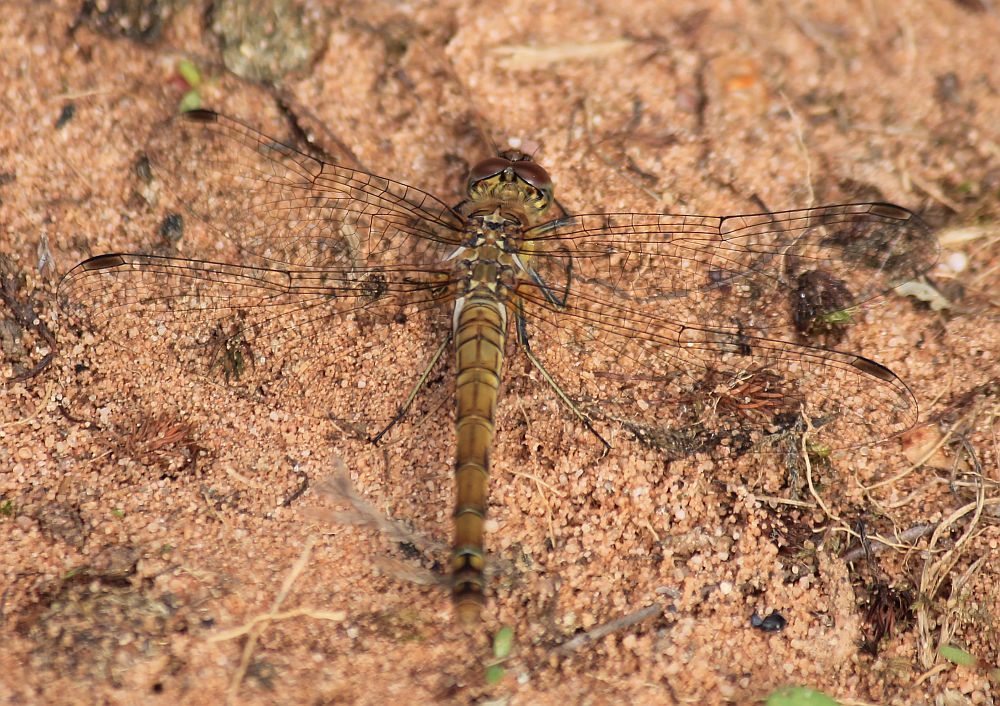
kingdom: Animalia
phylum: Arthropoda
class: Insecta
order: Odonata
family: Libellulidae
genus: Sympetrum
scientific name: Sympetrum striolatum
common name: Common darter
